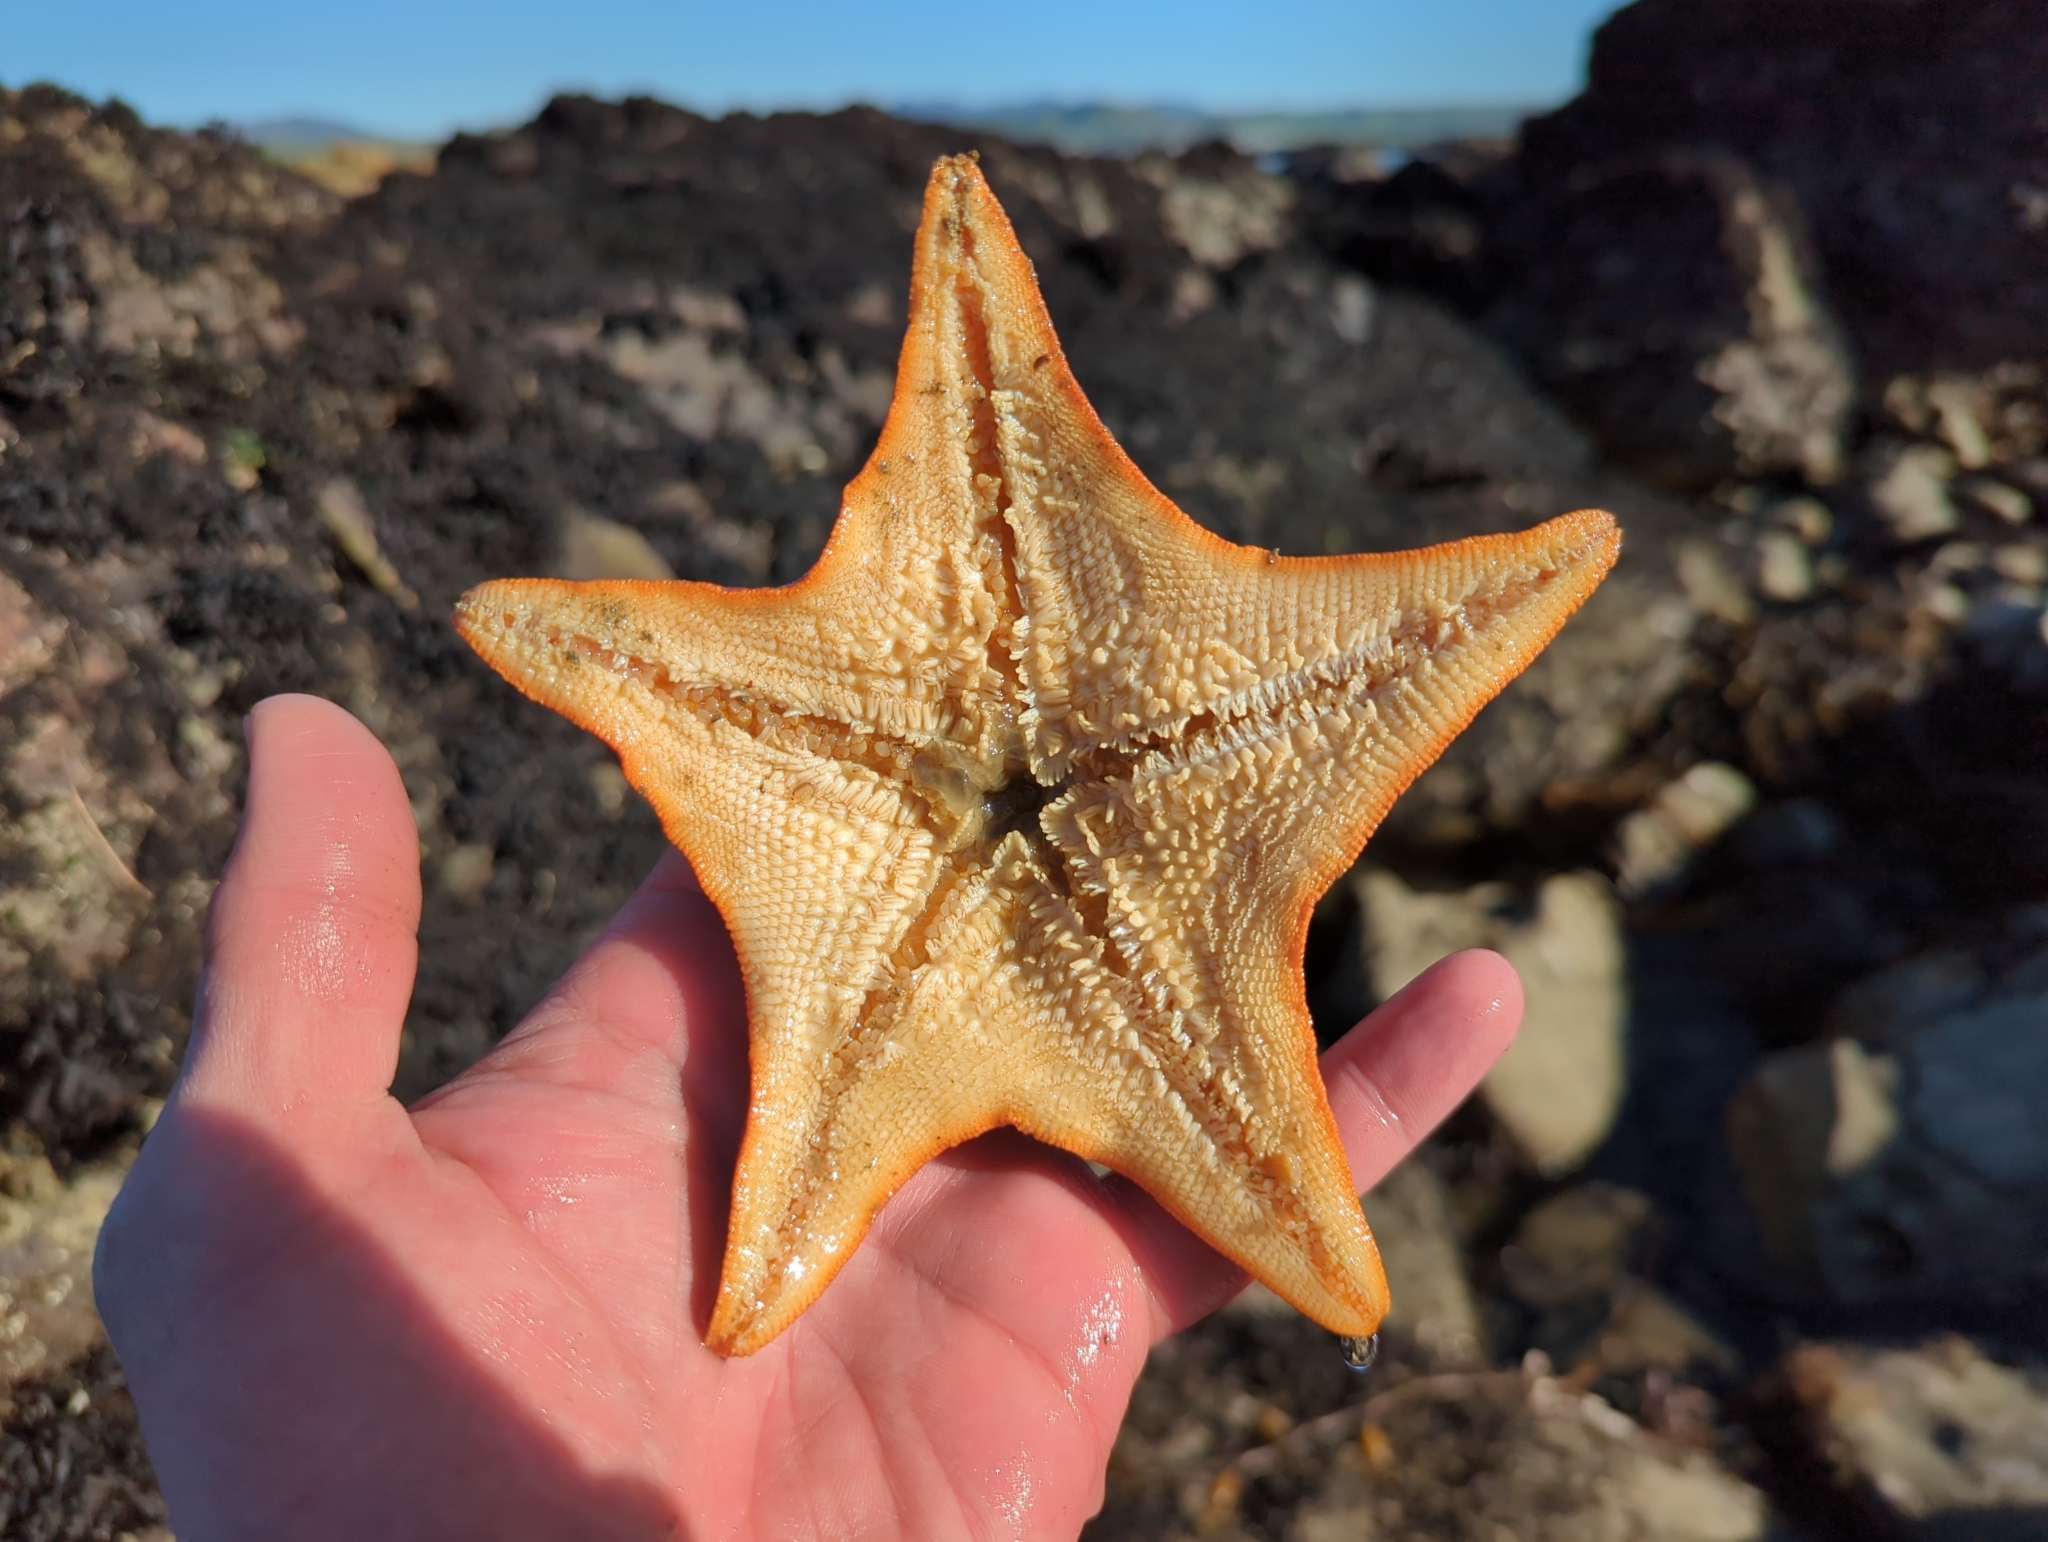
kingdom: Animalia
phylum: Echinodermata
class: Asteroidea
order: Valvatida
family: Asterinidae
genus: Patiria
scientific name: Patiria miniata
